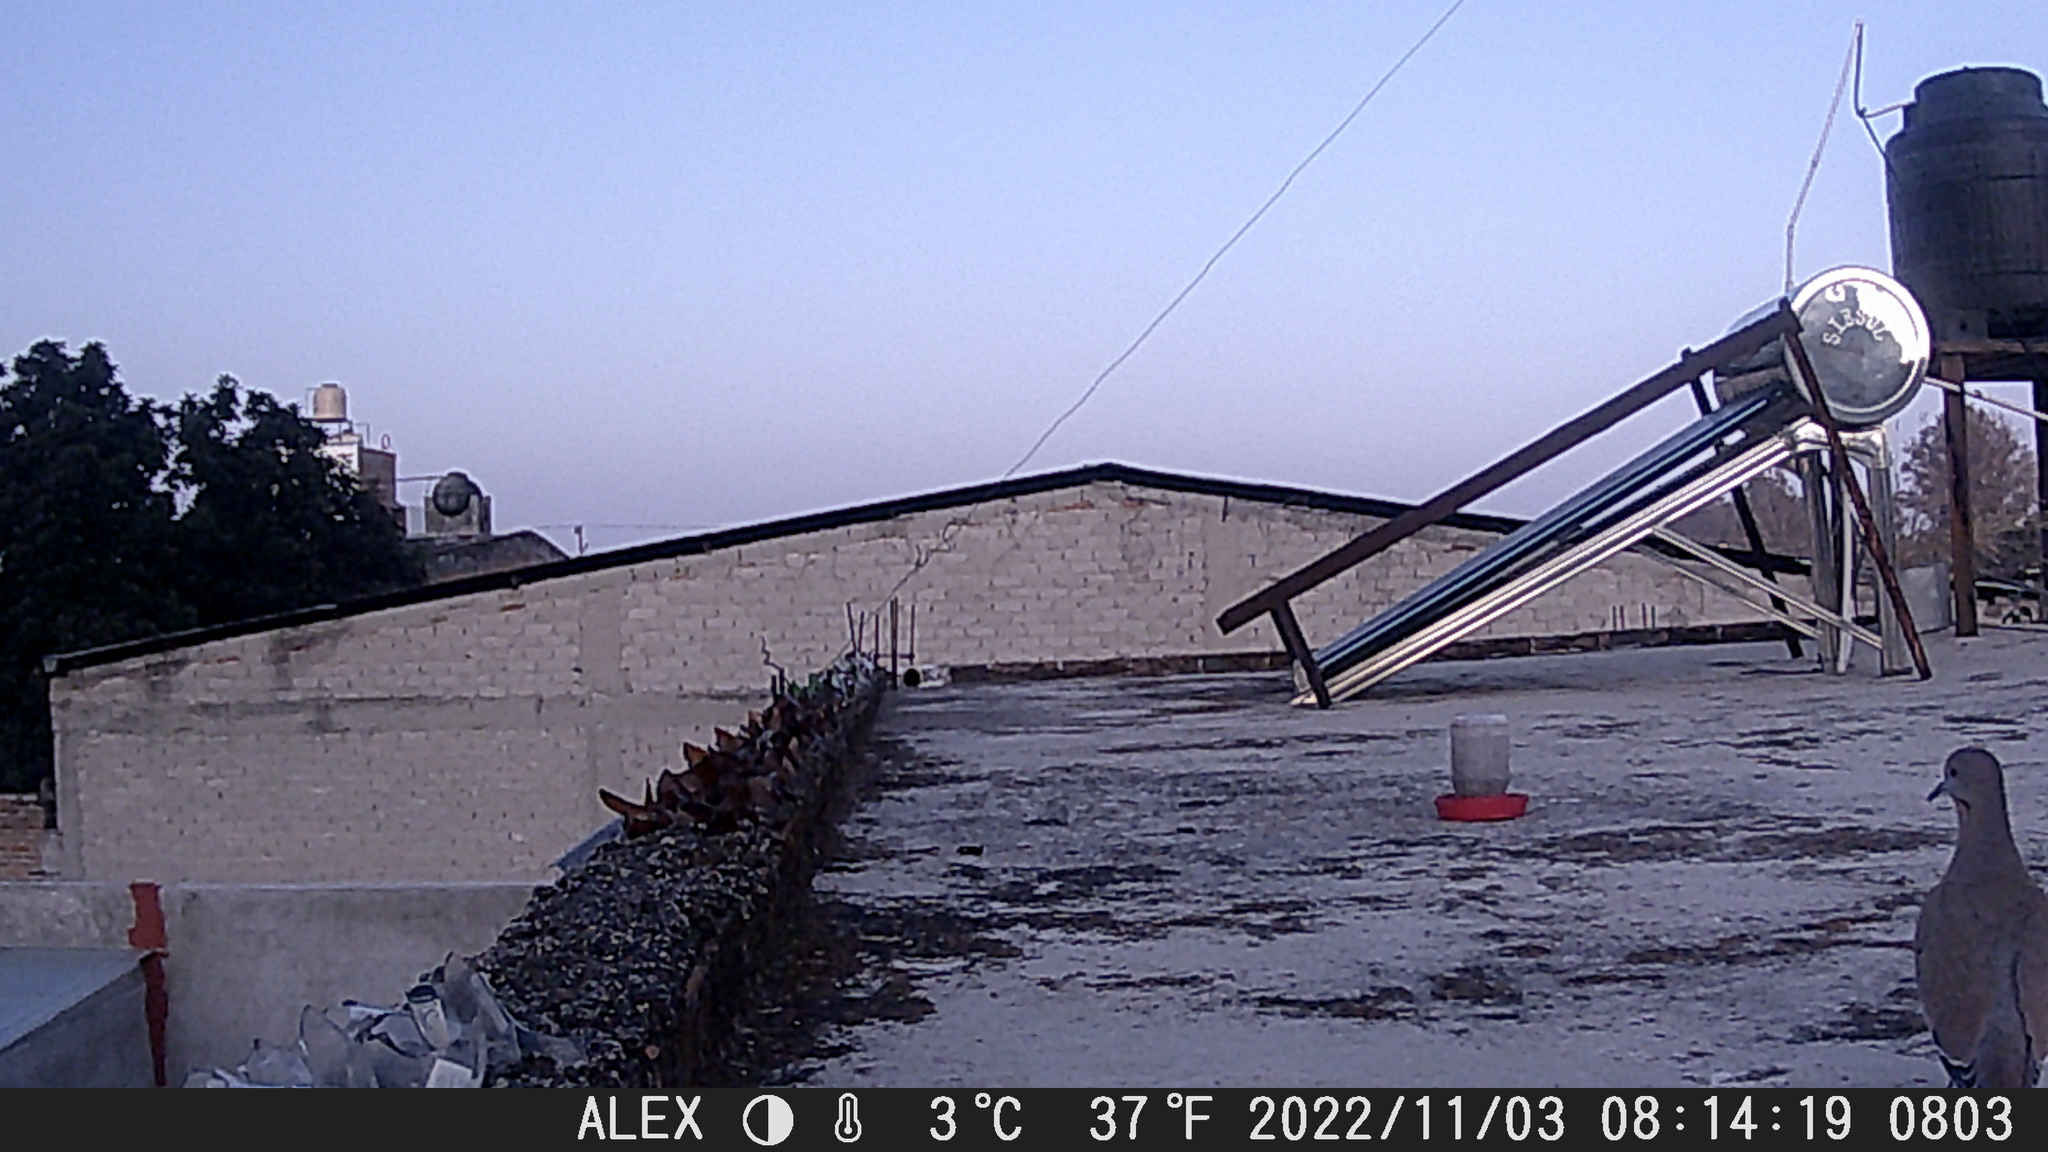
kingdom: Animalia
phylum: Chordata
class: Aves
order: Columbiformes
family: Columbidae
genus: Zenaida
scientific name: Zenaida asiatica
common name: White-winged dove
